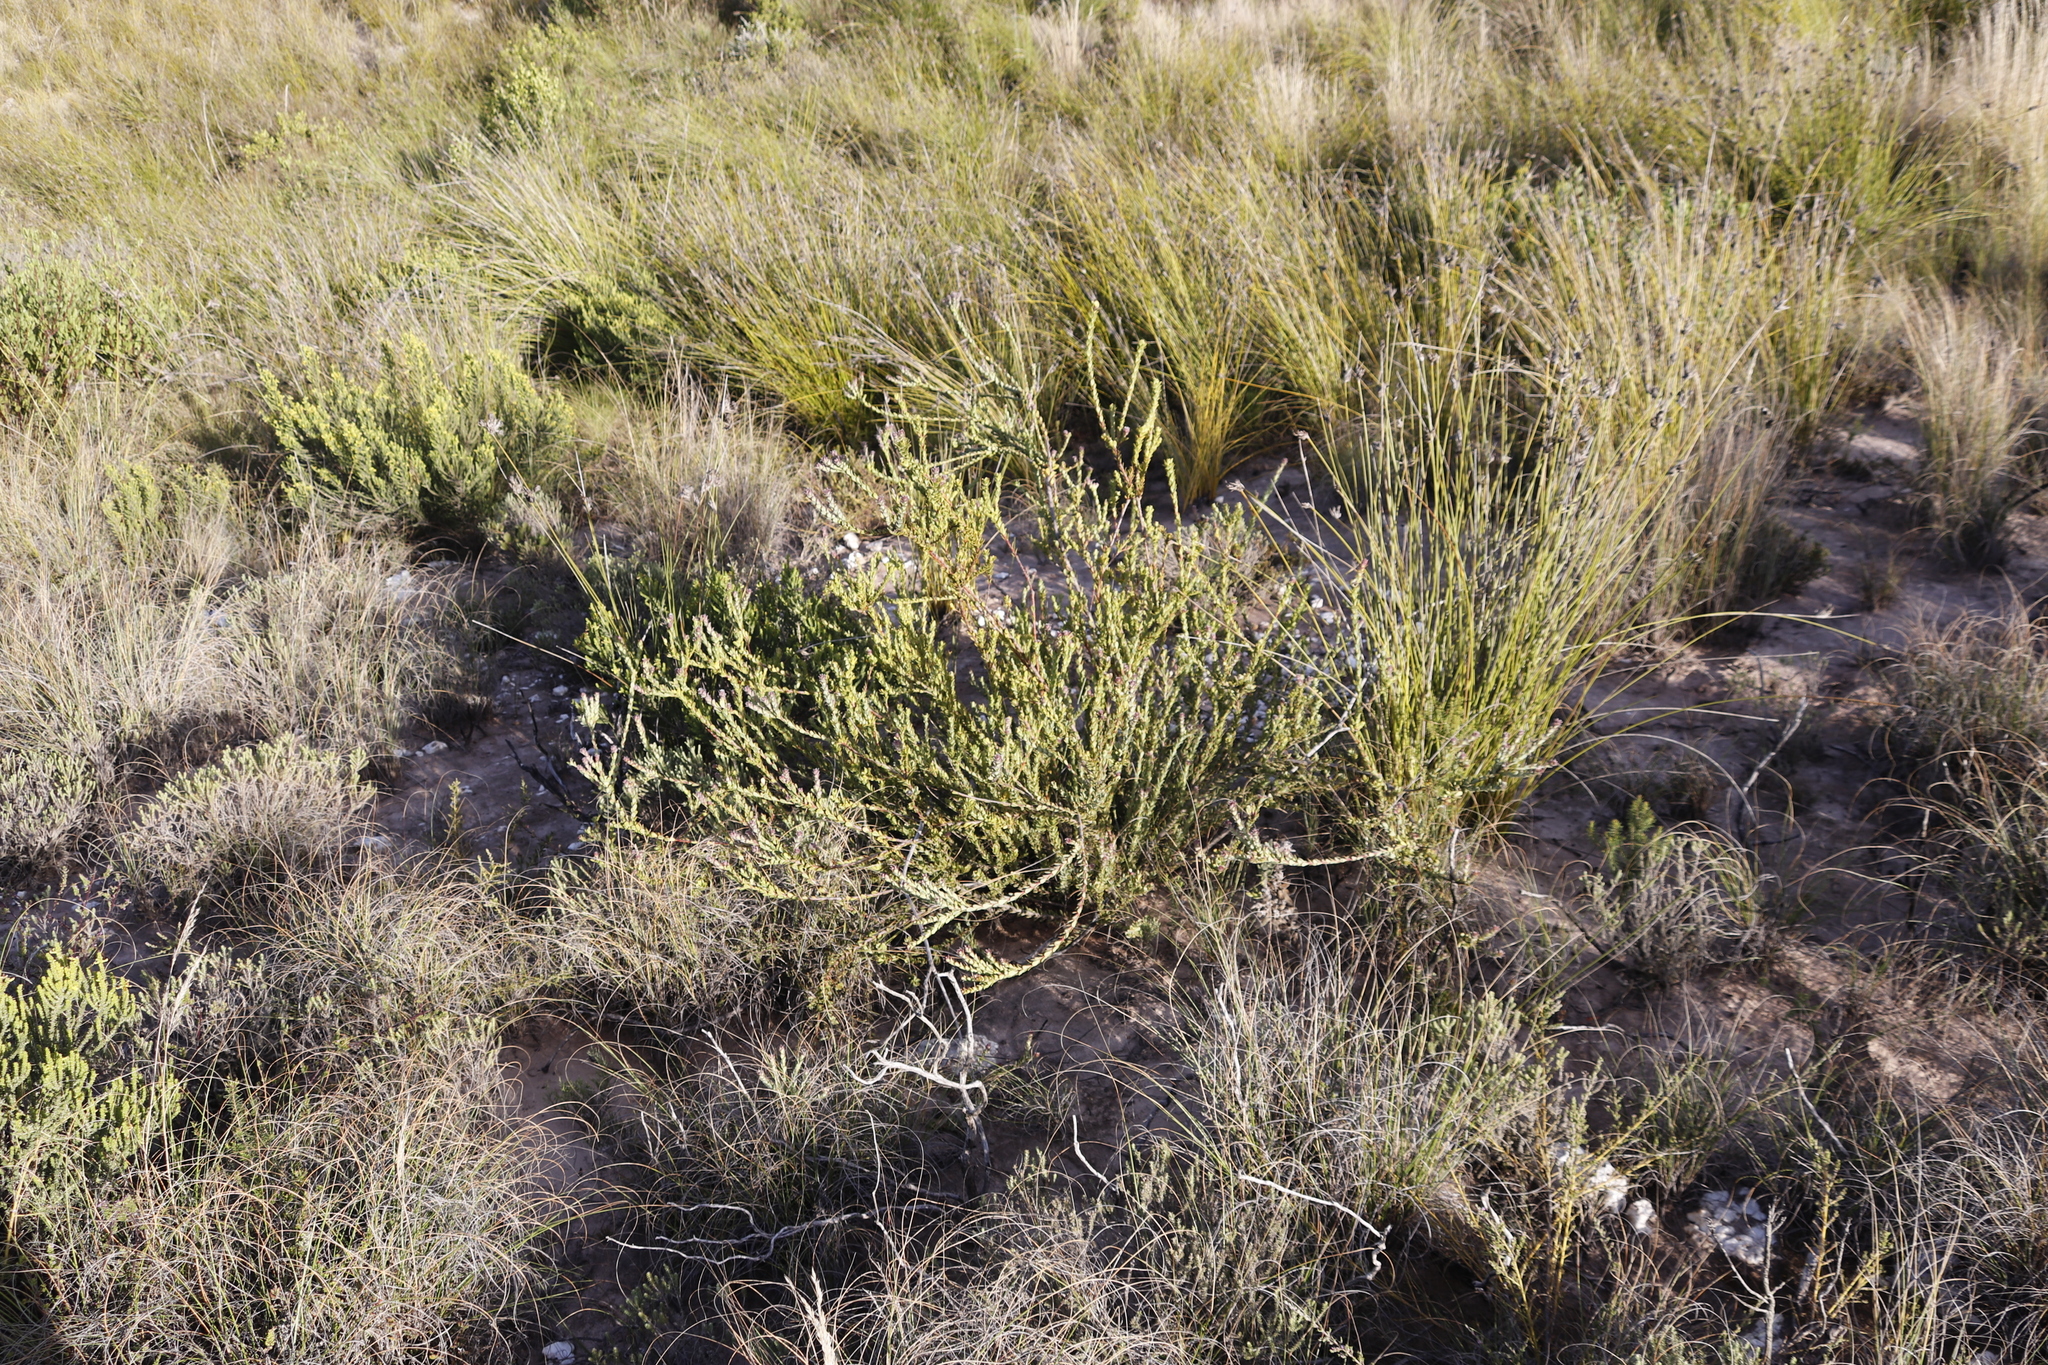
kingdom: Plantae
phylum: Tracheophyta
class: Magnoliopsida
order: Proteales
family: Proteaceae
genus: Leucadendron
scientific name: Leucadendron coriaceum
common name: Rosette conebush
